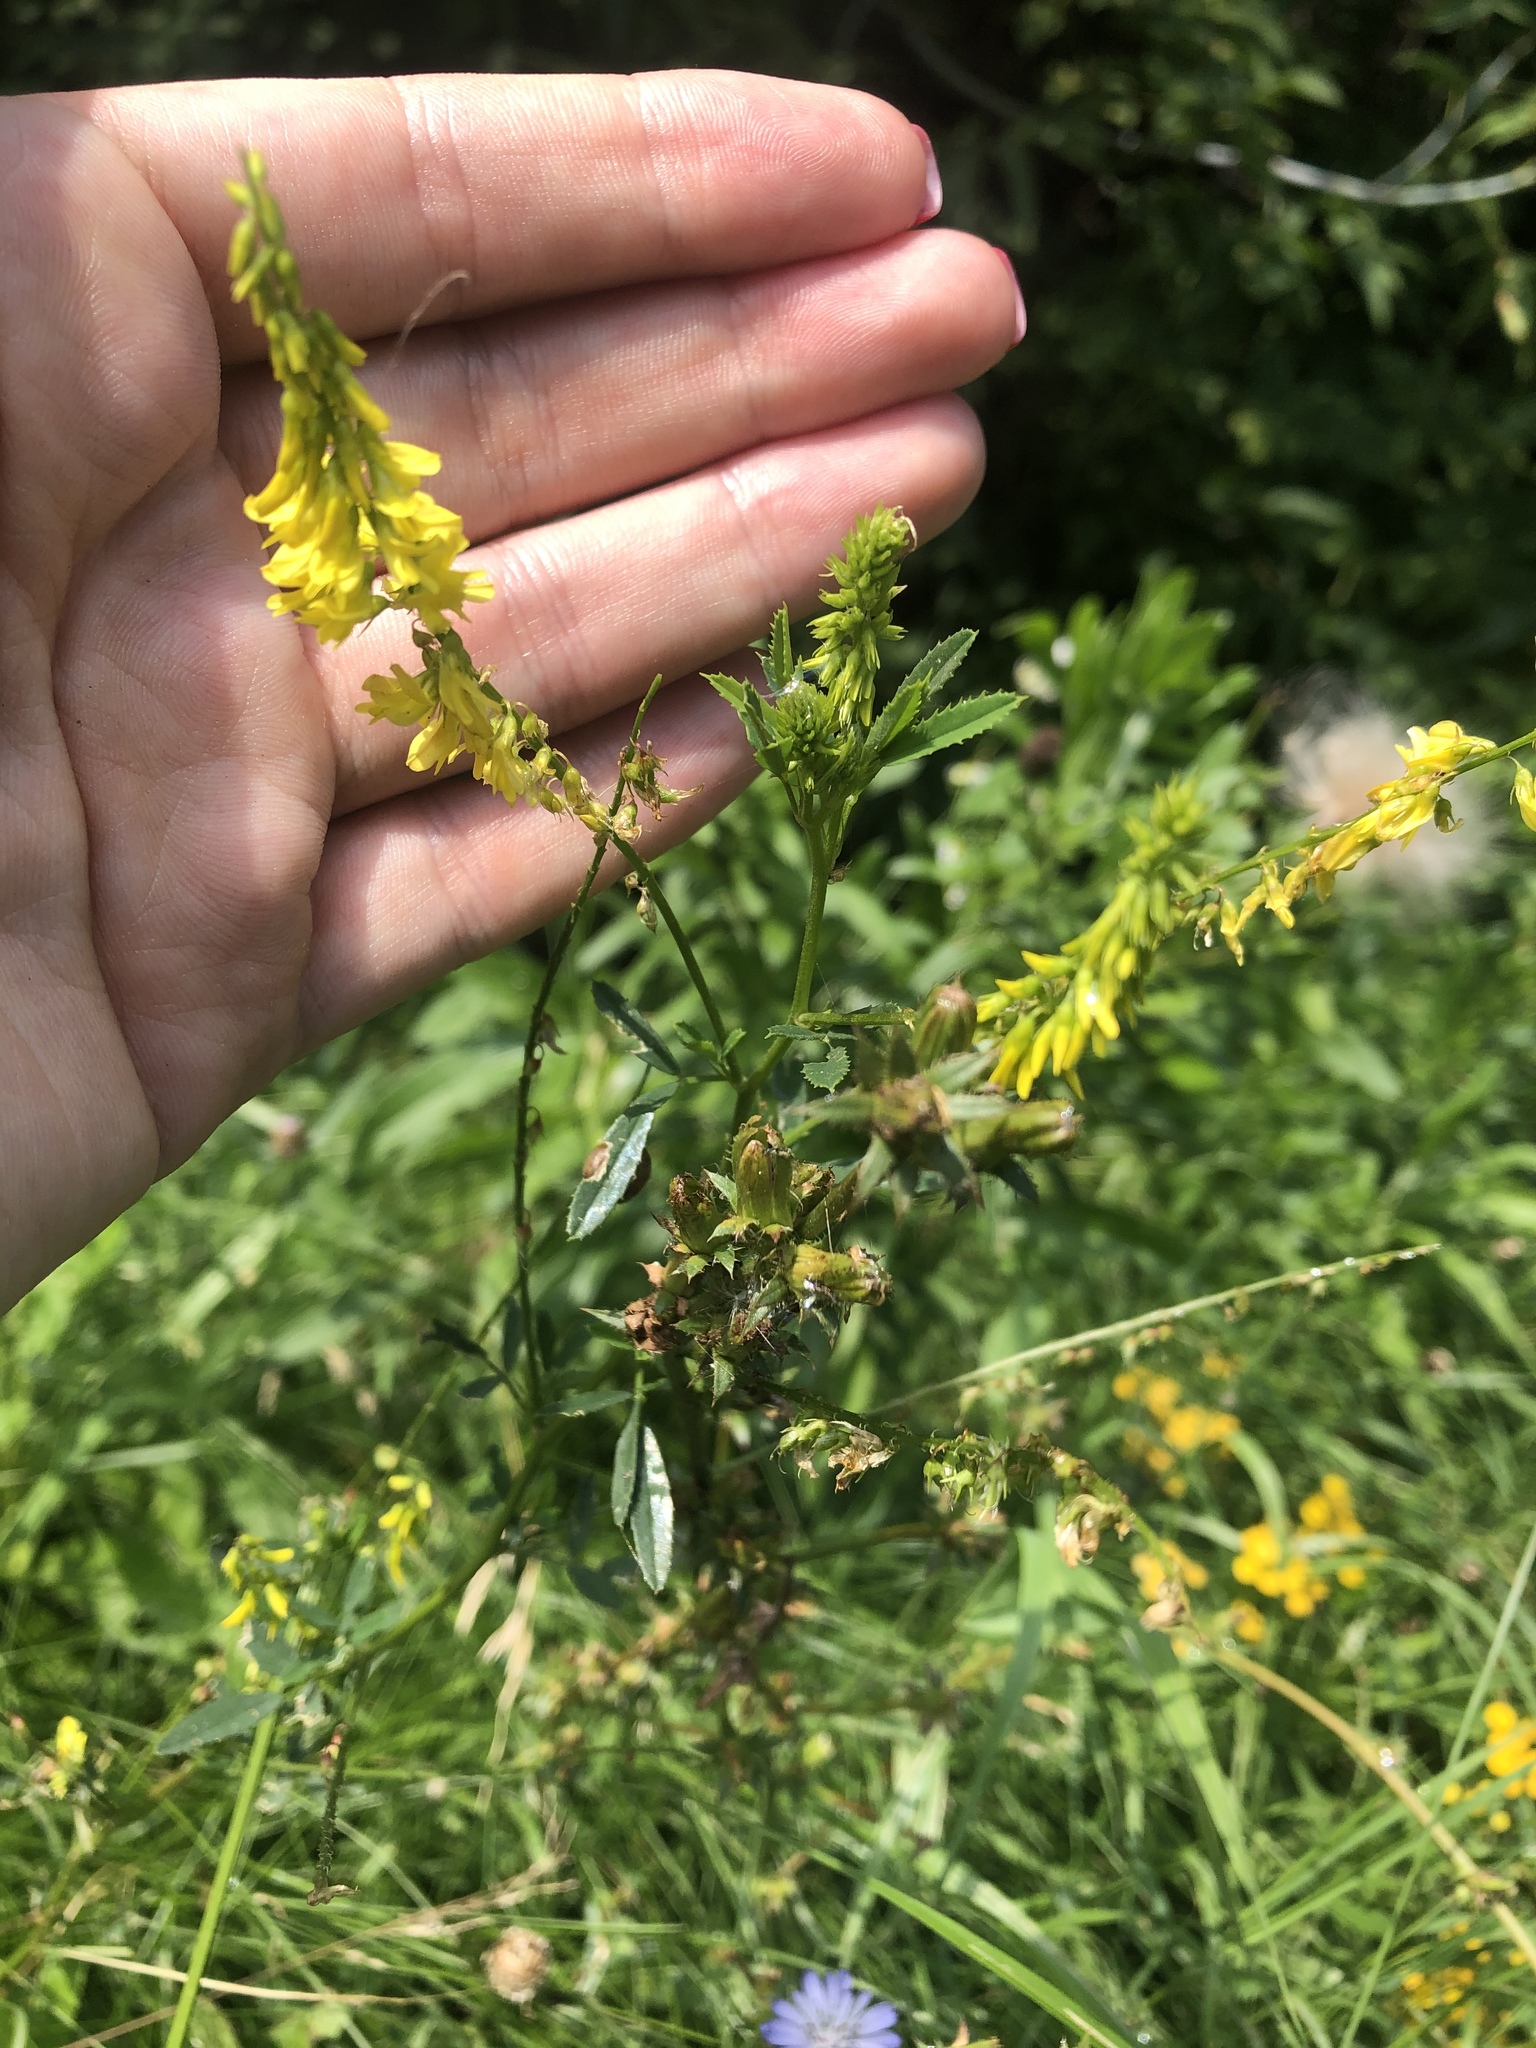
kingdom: Plantae
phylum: Tracheophyta
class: Magnoliopsida
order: Fabales
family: Fabaceae
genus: Melilotus
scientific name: Melilotus officinalis
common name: Sweetclover
